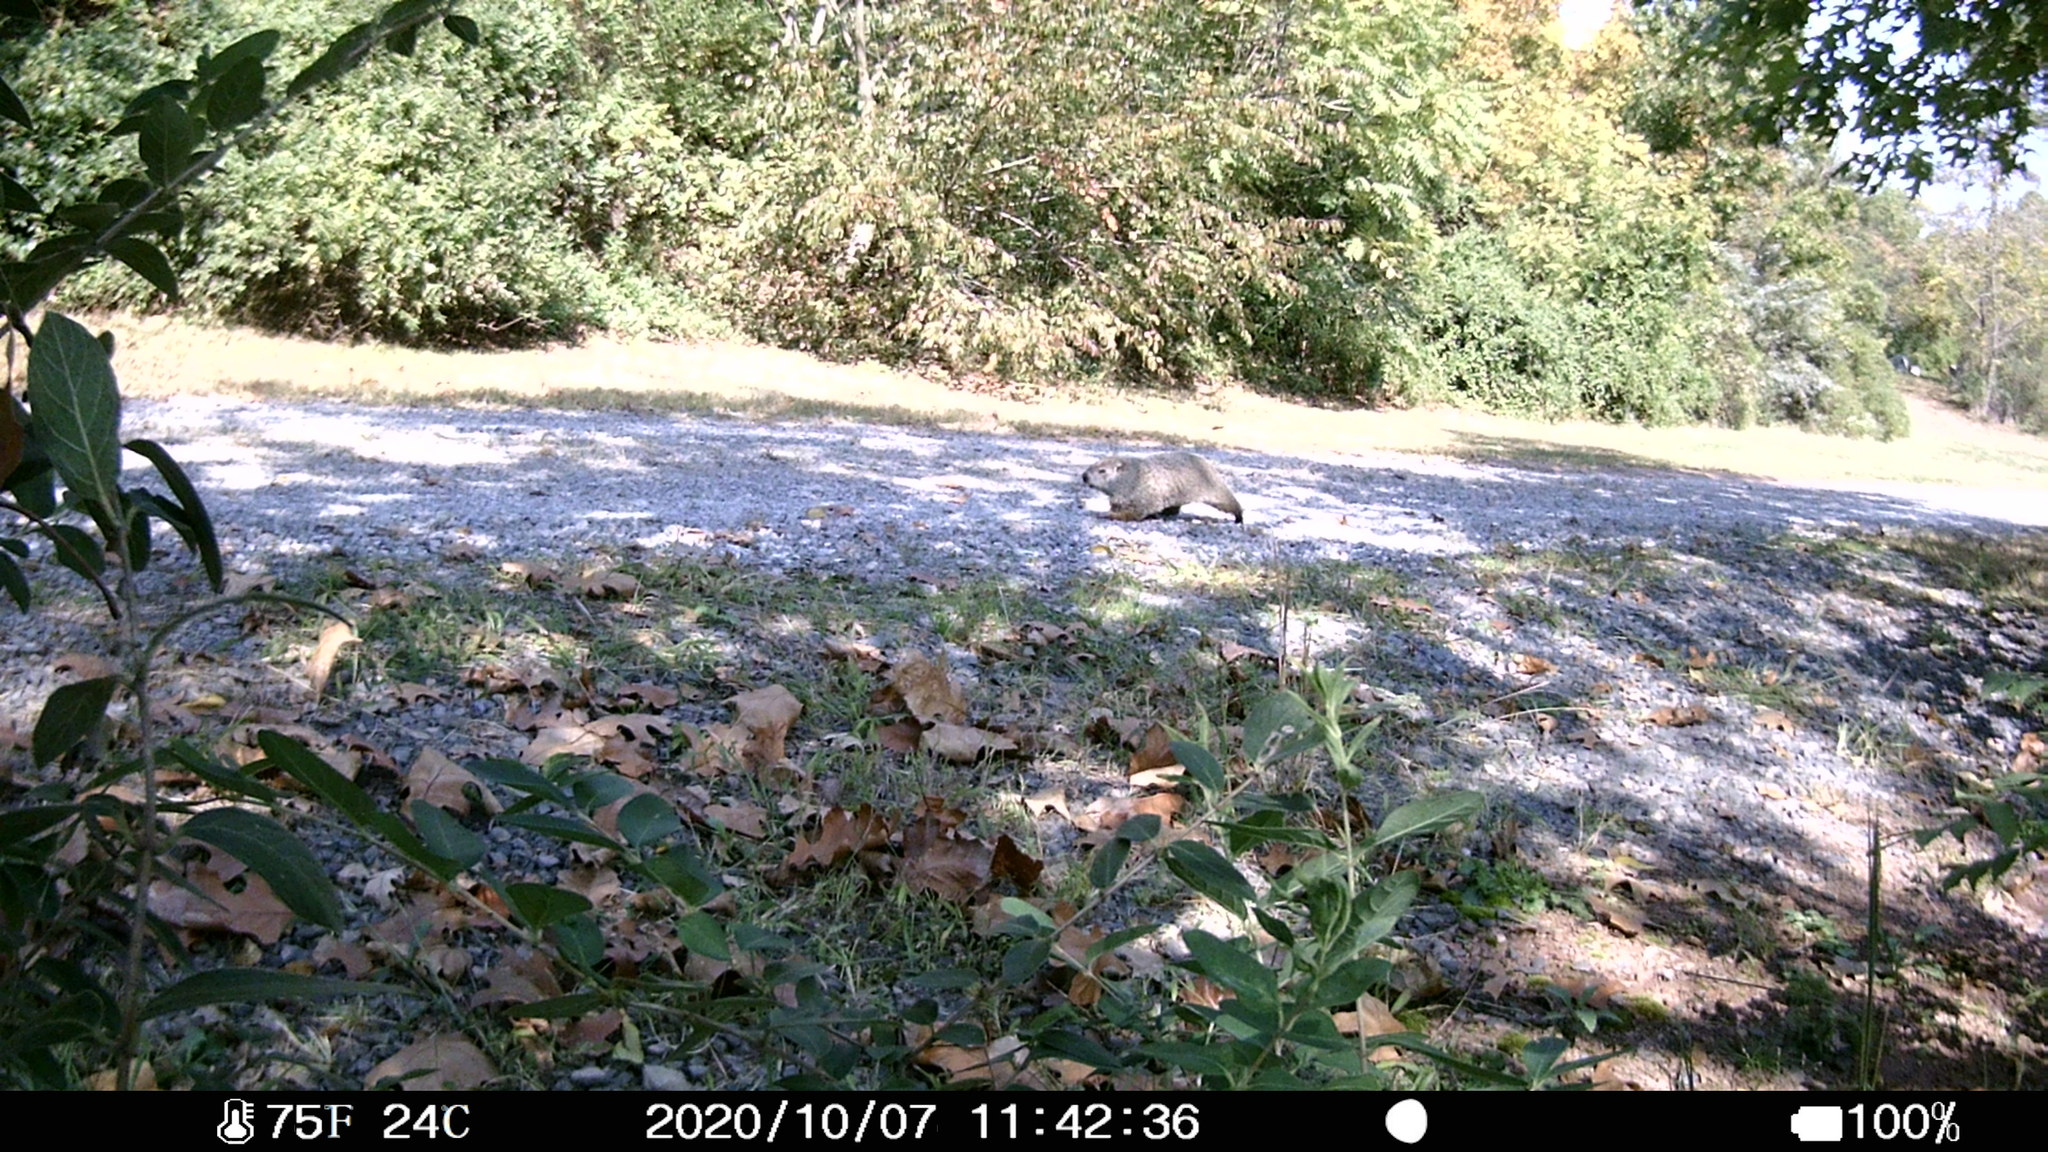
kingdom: Animalia
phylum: Chordata
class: Mammalia
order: Rodentia
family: Sciuridae
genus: Marmota
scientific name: Marmota monax
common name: Groundhog
